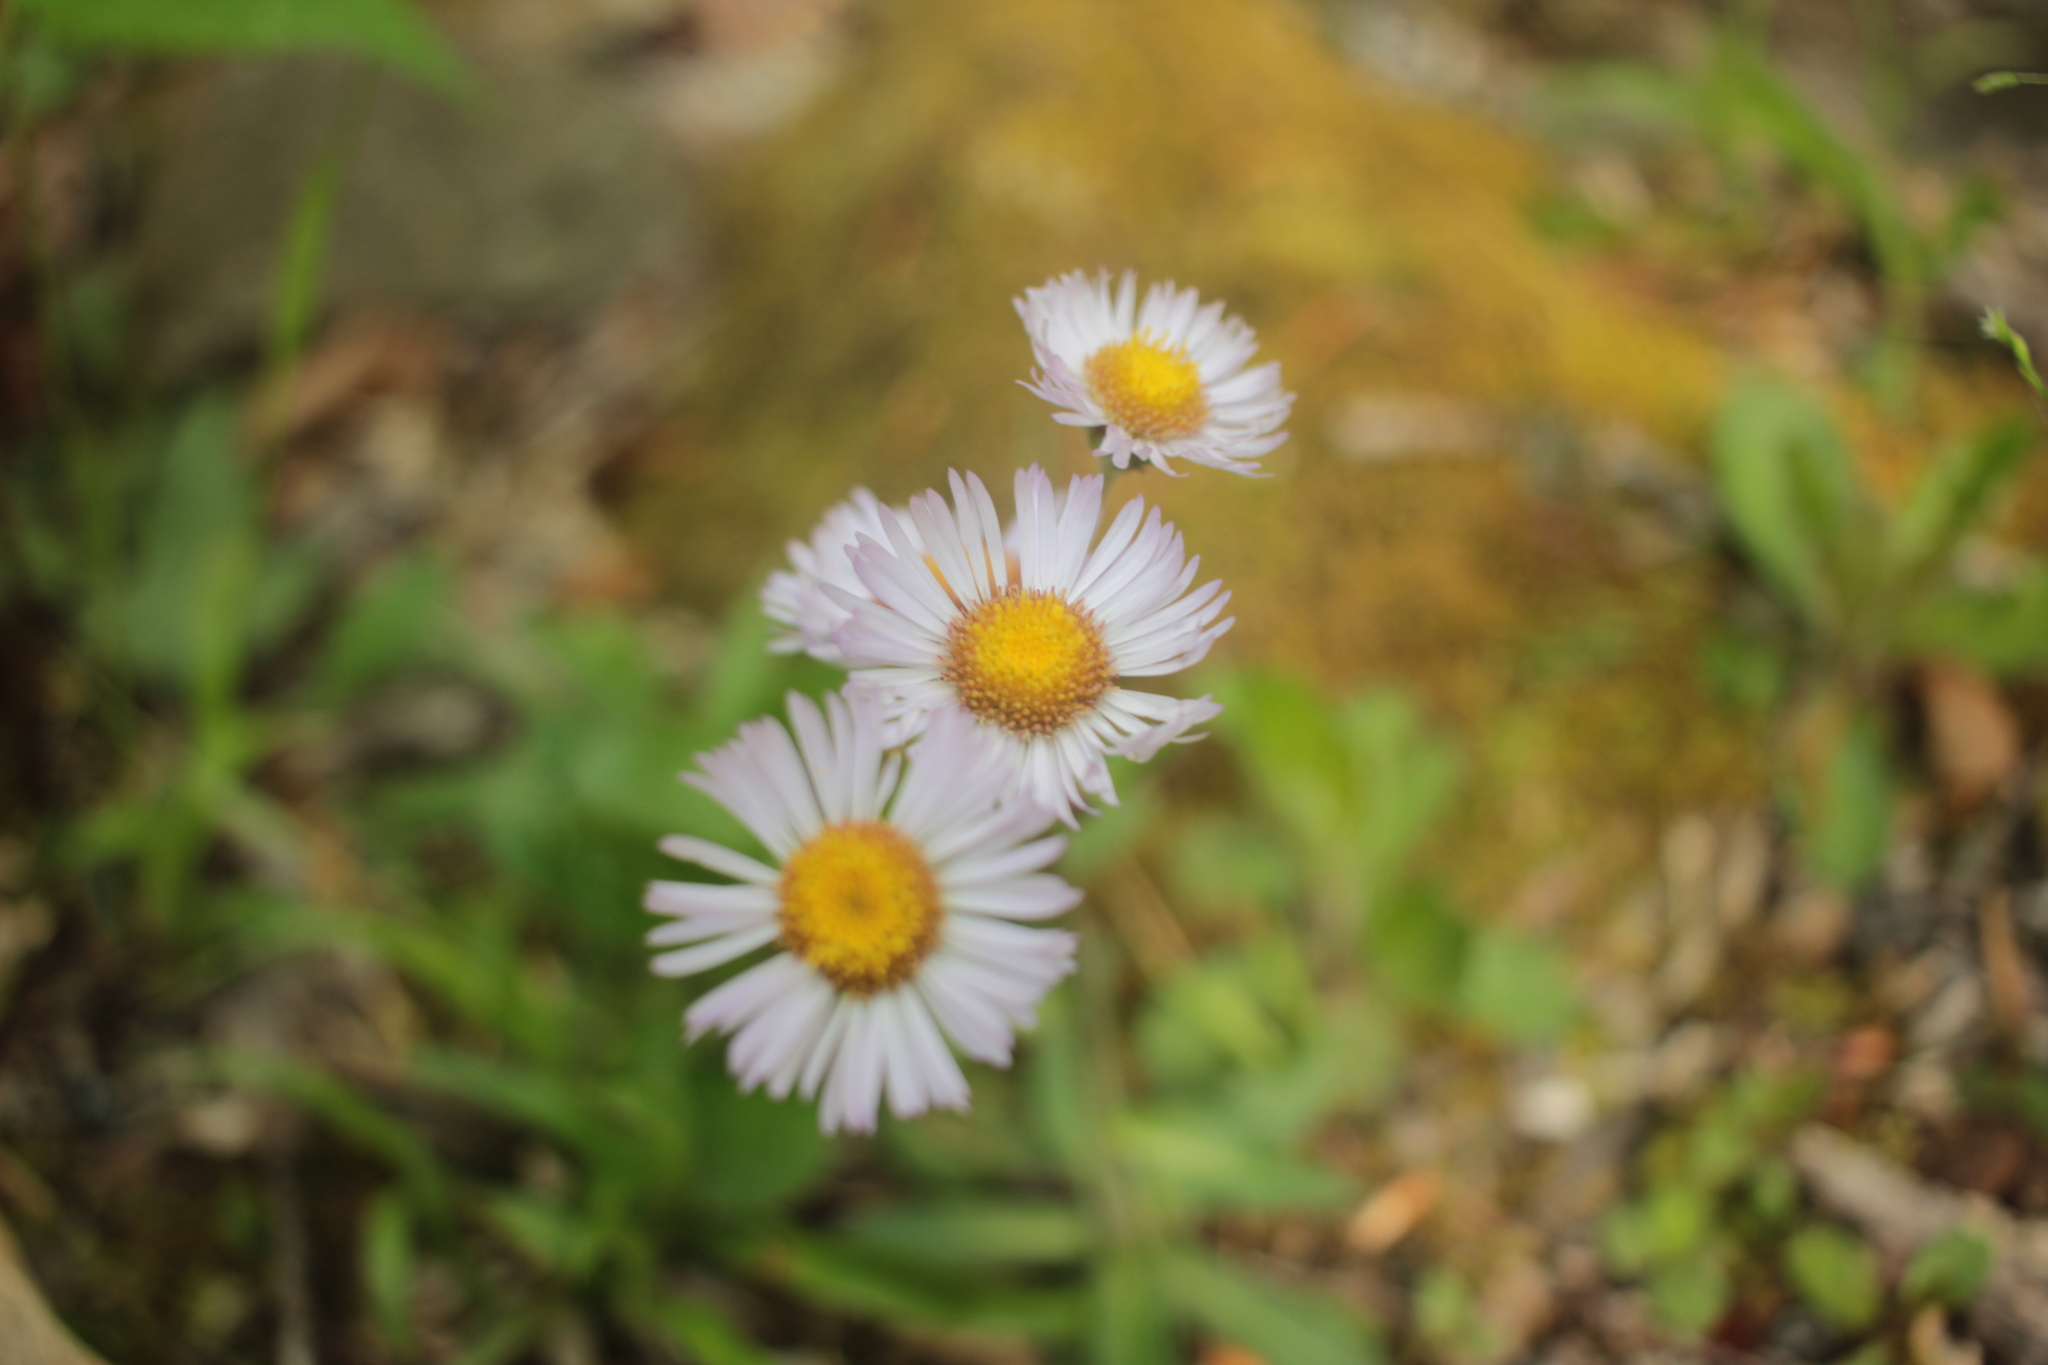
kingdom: Plantae
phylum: Tracheophyta
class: Magnoliopsida
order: Asterales
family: Asteraceae
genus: Erigeron
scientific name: Erigeron pulchellus
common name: Hairy fleabane
